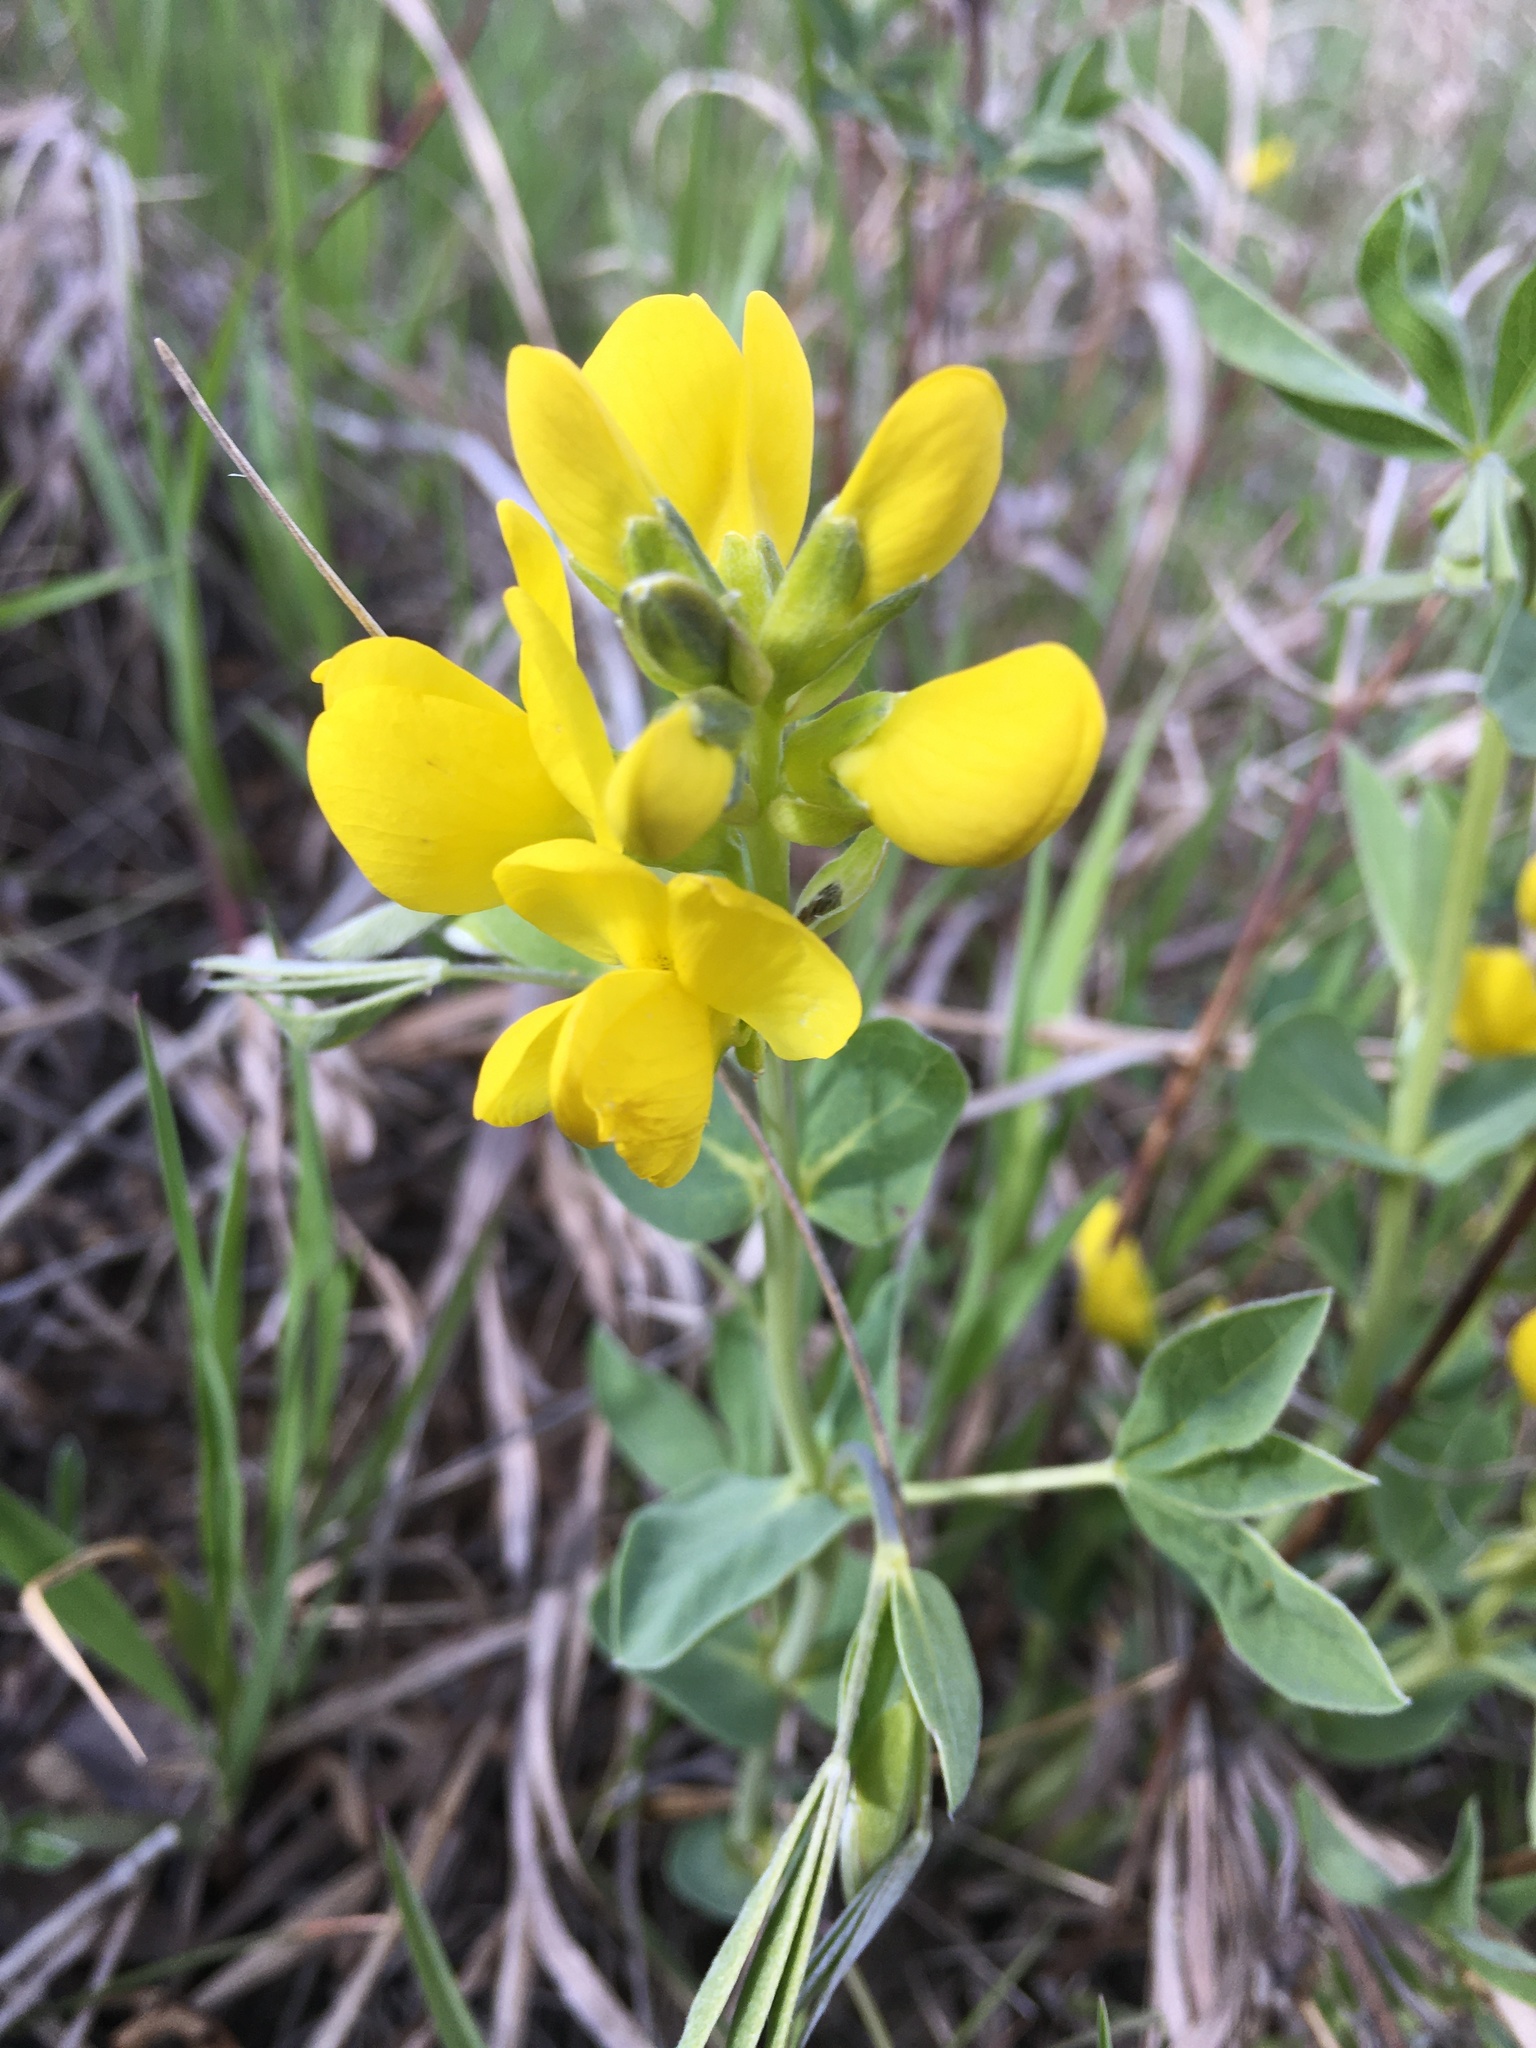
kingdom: Plantae
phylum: Tracheophyta
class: Magnoliopsida
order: Fabales
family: Fabaceae
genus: Thermopsis
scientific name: Thermopsis rhombifolia
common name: Circle-pod-pea
